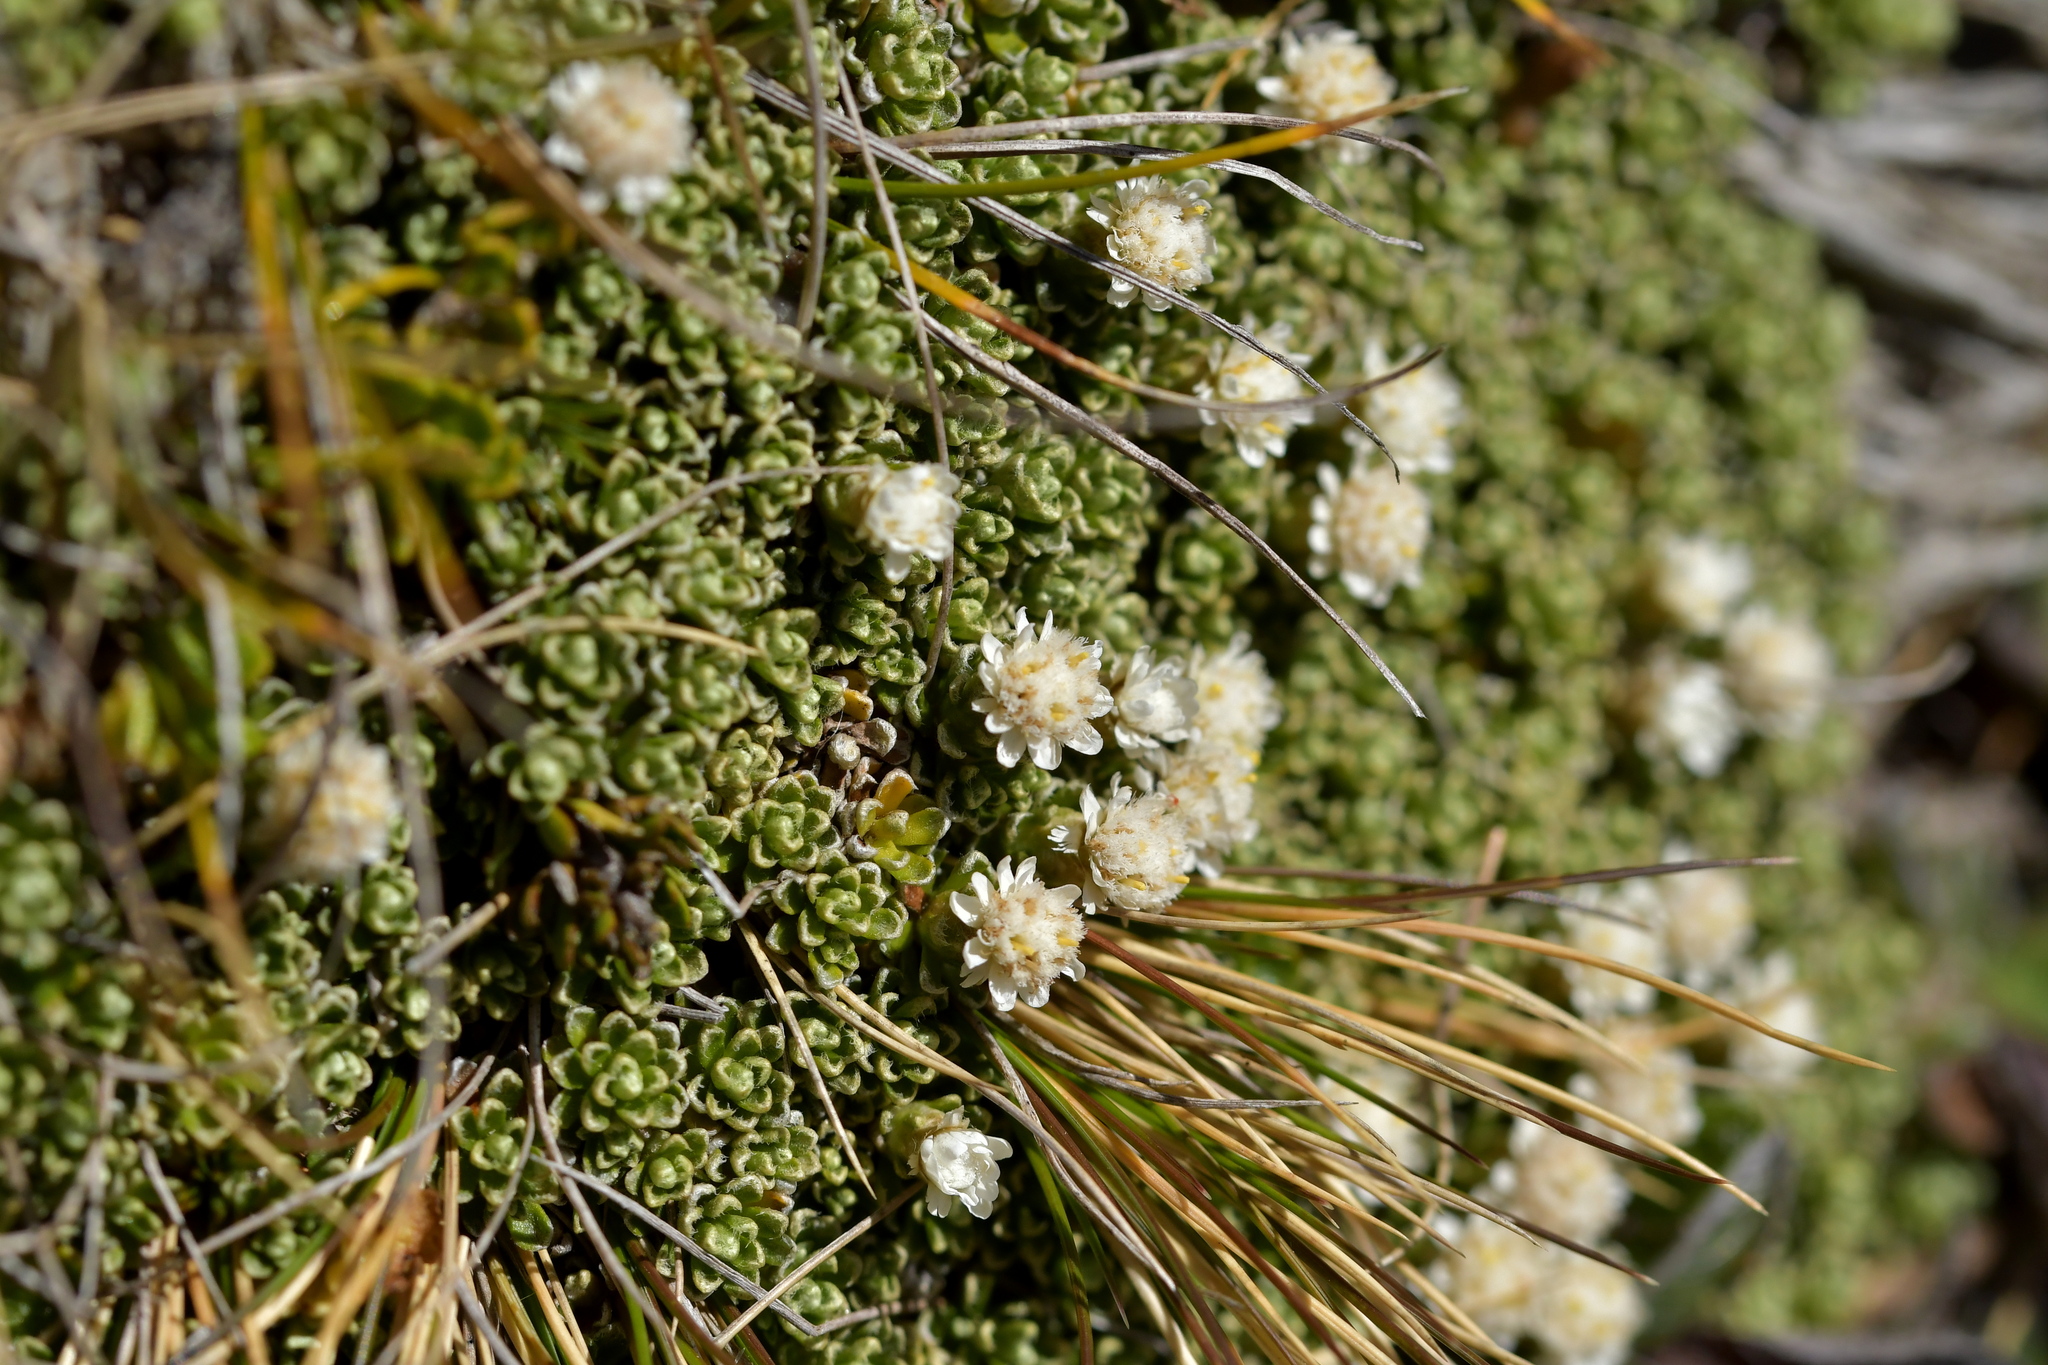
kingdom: Plantae
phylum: Tracheophyta
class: Magnoliopsida
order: Asterales
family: Asteraceae
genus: Raoulia
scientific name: Raoulia subsericea
